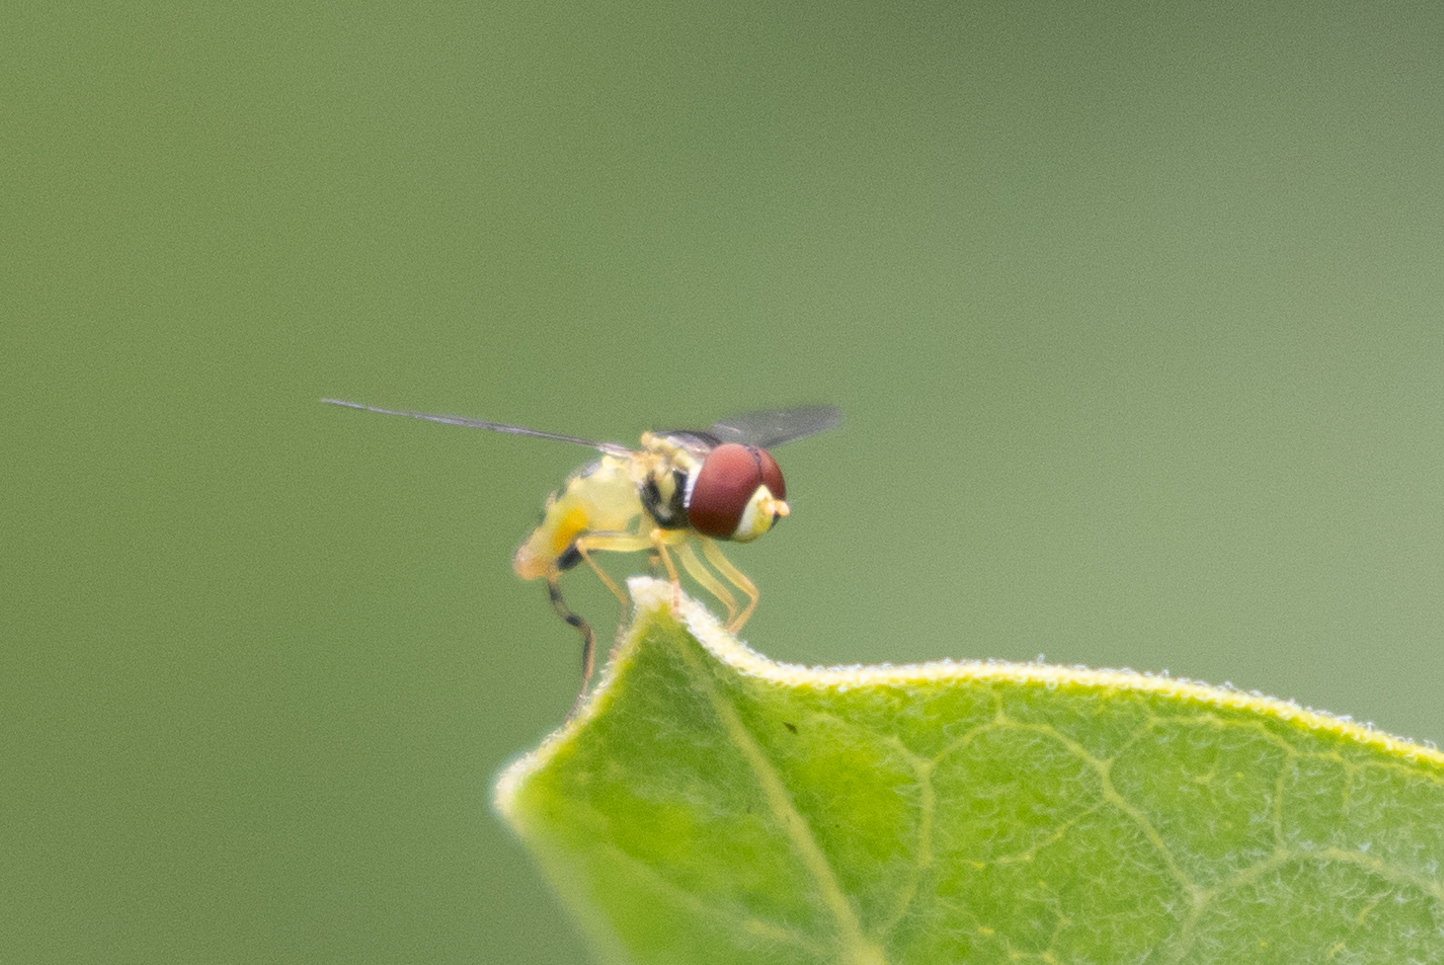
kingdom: Animalia
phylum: Arthropoda
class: Insecta
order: Diptera
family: Syrphidae
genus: Toxomerus
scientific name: Toxomerus geminatus
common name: Eastern calligrapher
